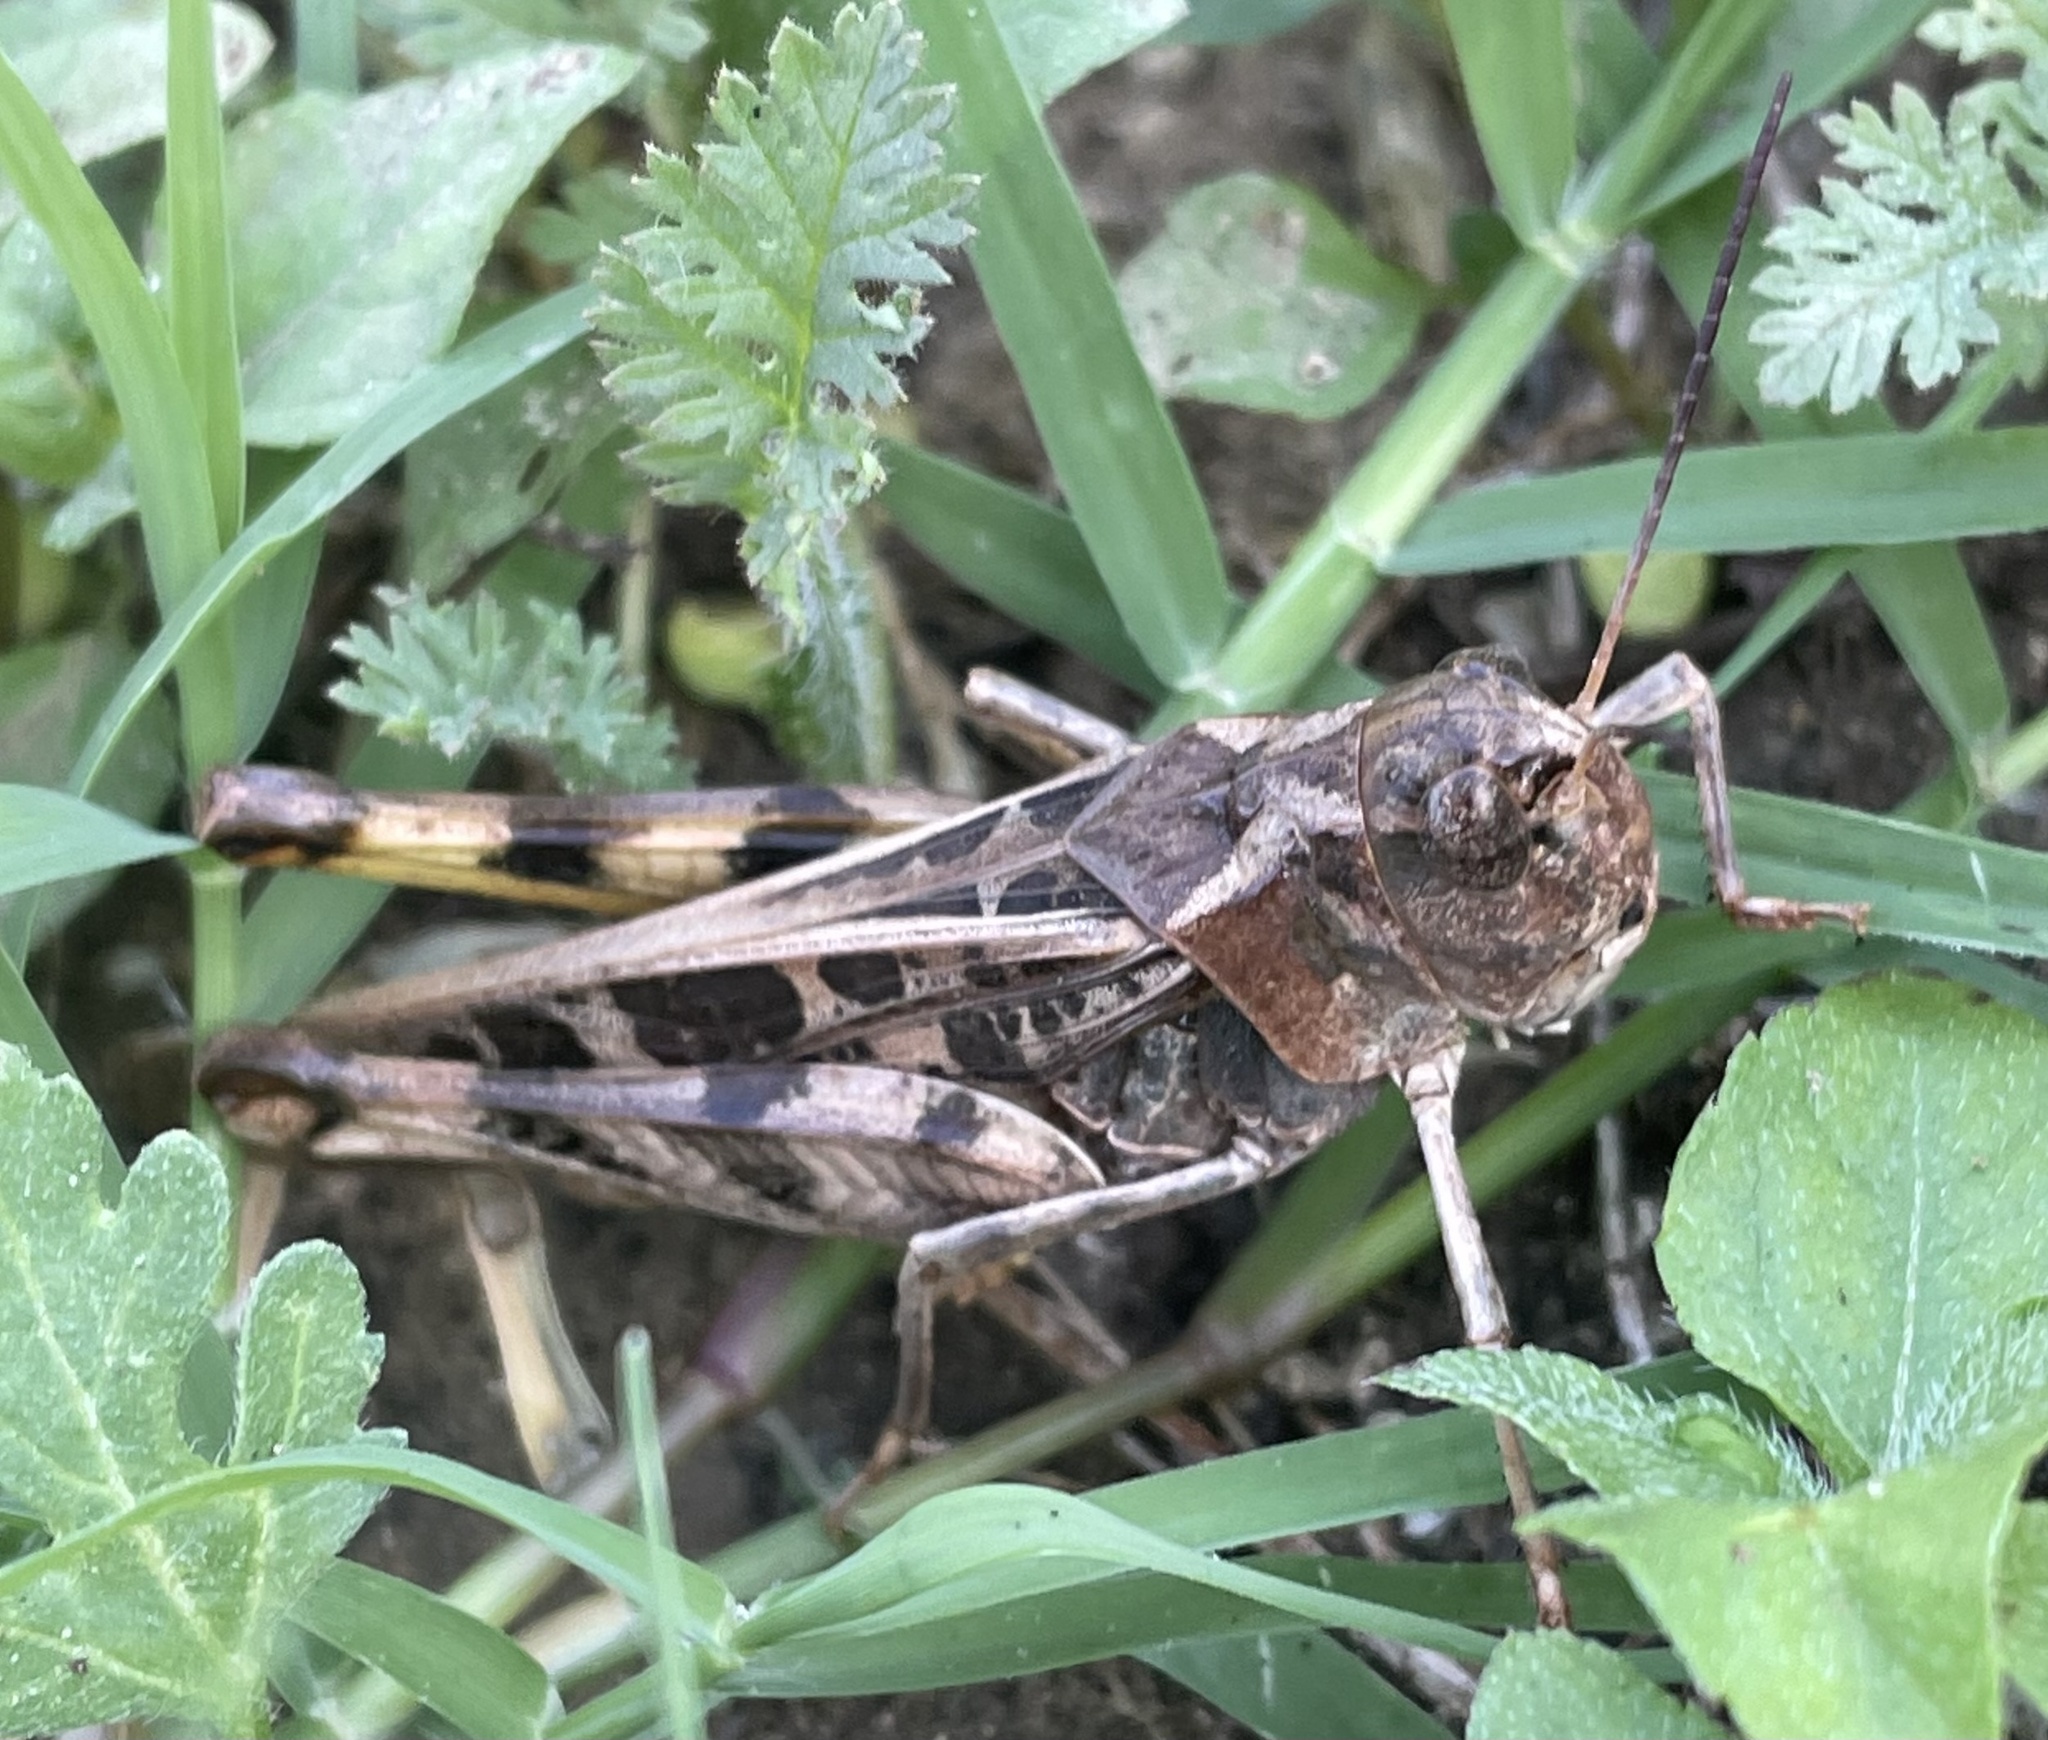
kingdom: Animalia
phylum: Arthropoda
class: Insecta
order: Orthoptera
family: Acrididae
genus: Hippiscus
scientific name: Hippiscus ocelote
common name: Wrinkled grasshopper
